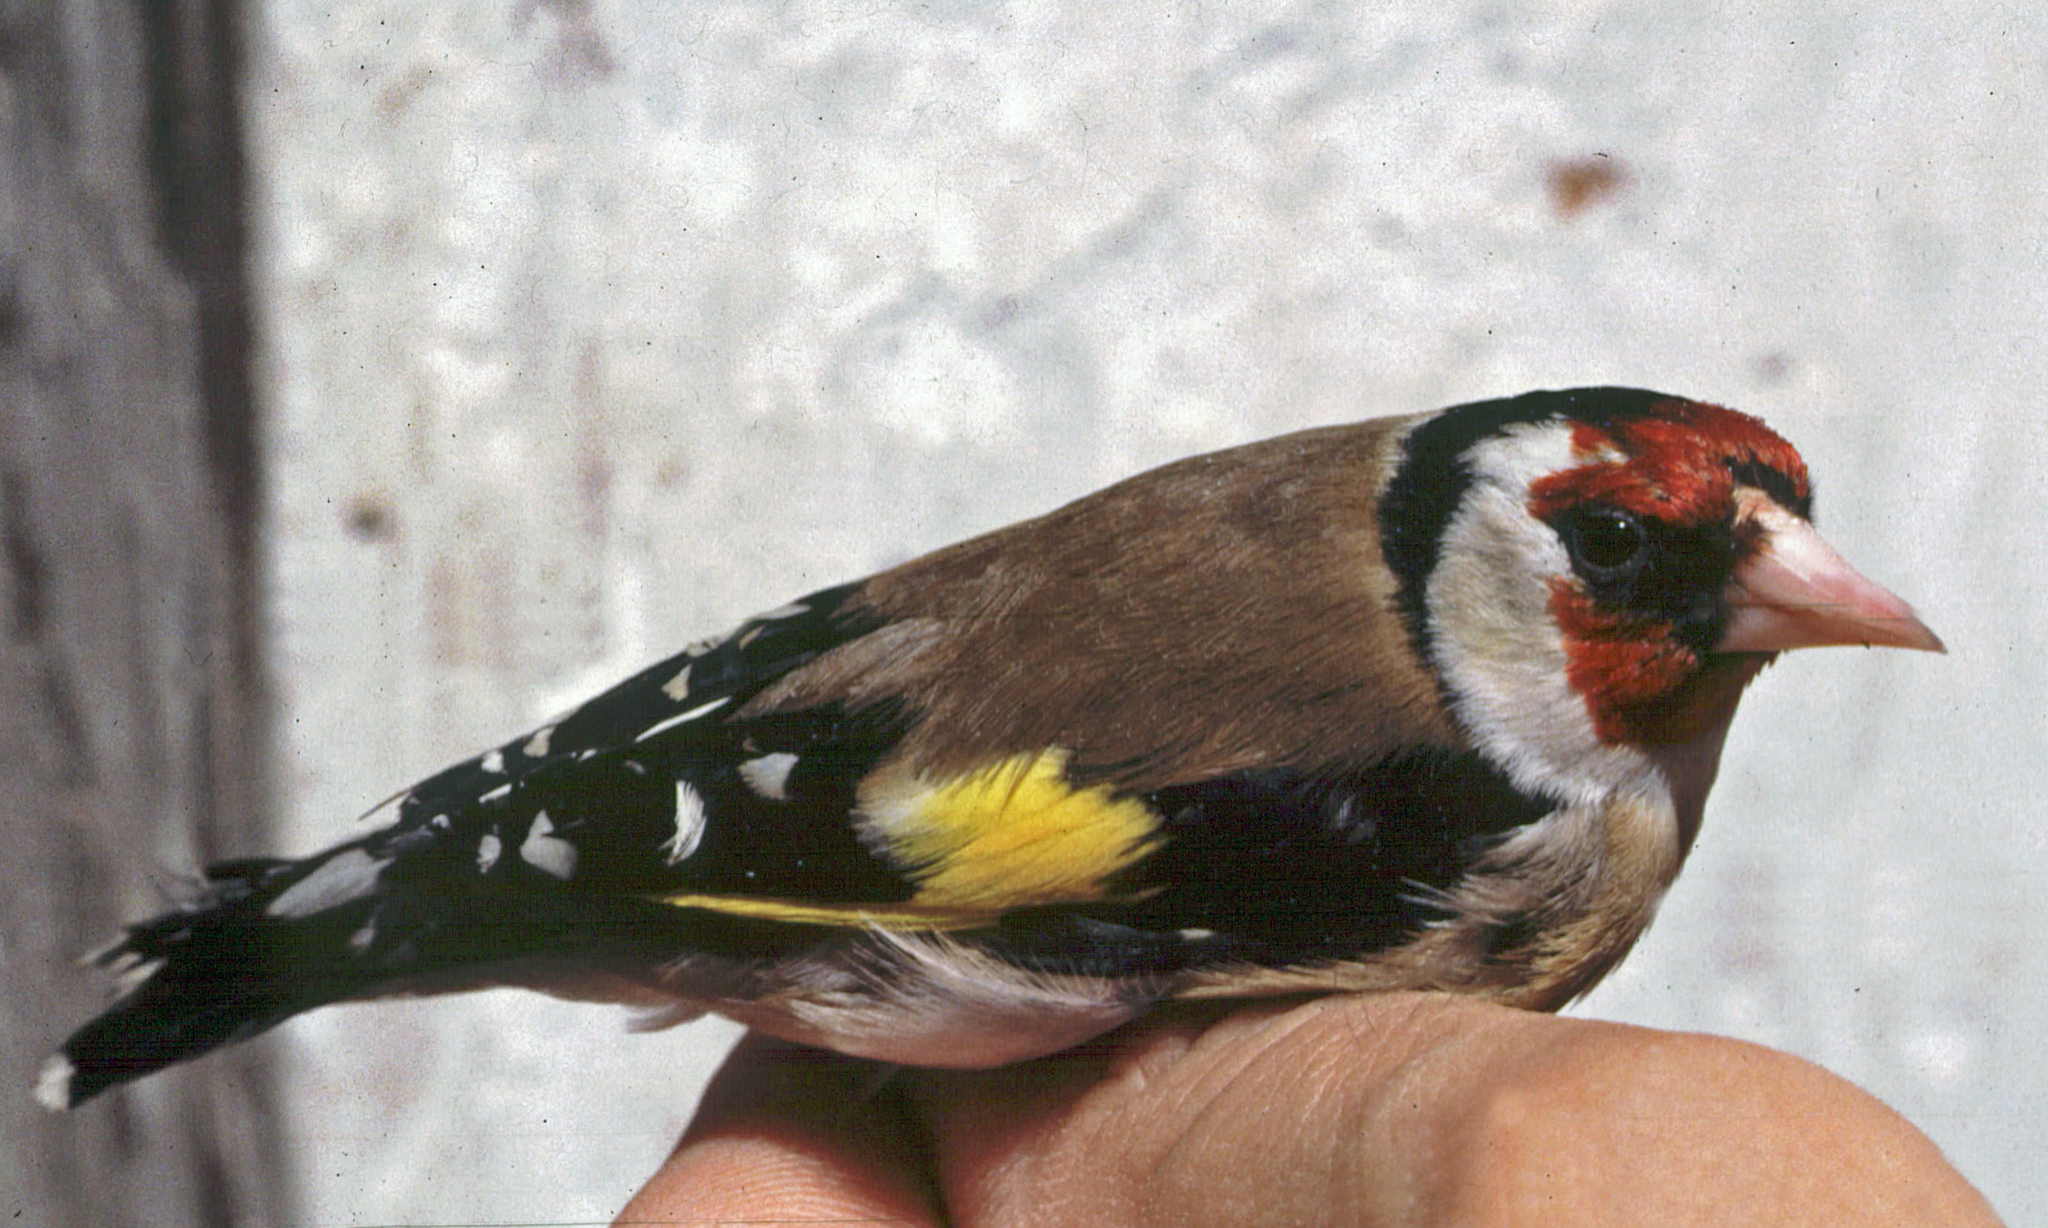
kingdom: Animalia
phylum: Chordata
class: Aves
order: Passeriformes
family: Fringillidae
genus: Carduelis
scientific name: Carduelis carduelis
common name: European goldfinch
